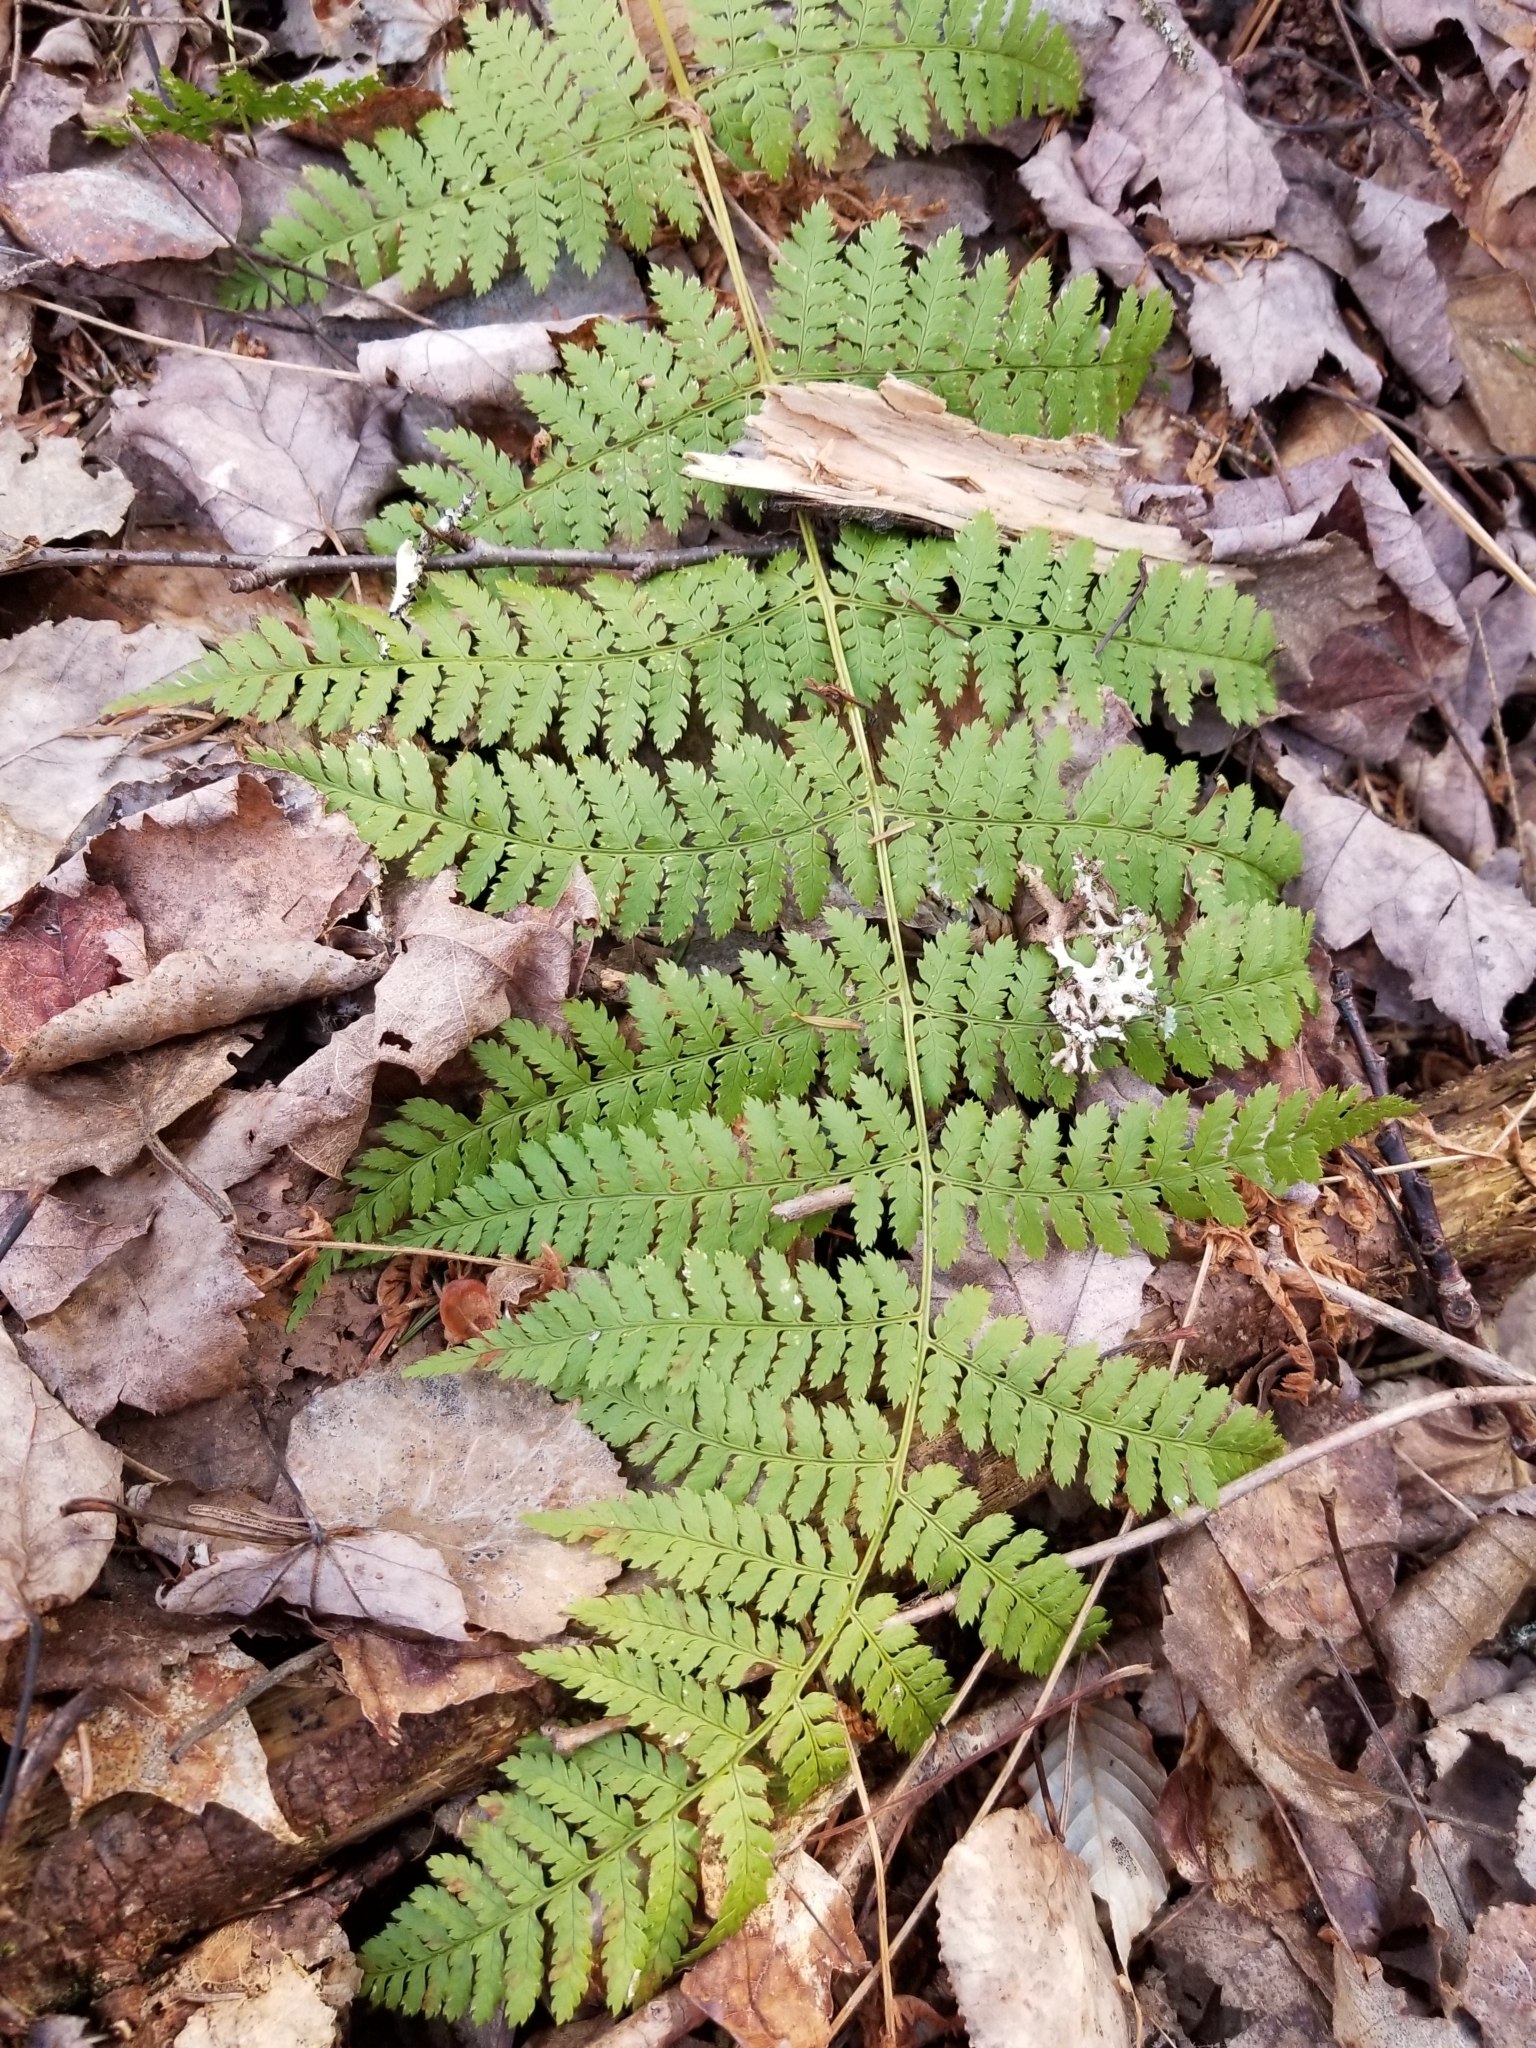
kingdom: Plantae
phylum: Tracheophyta
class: Polypodiopsida
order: Polypodiales
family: Dryopteridaceae
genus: Dryopteris
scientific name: Dryopteris intermedia
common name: Evergreen wood fern
